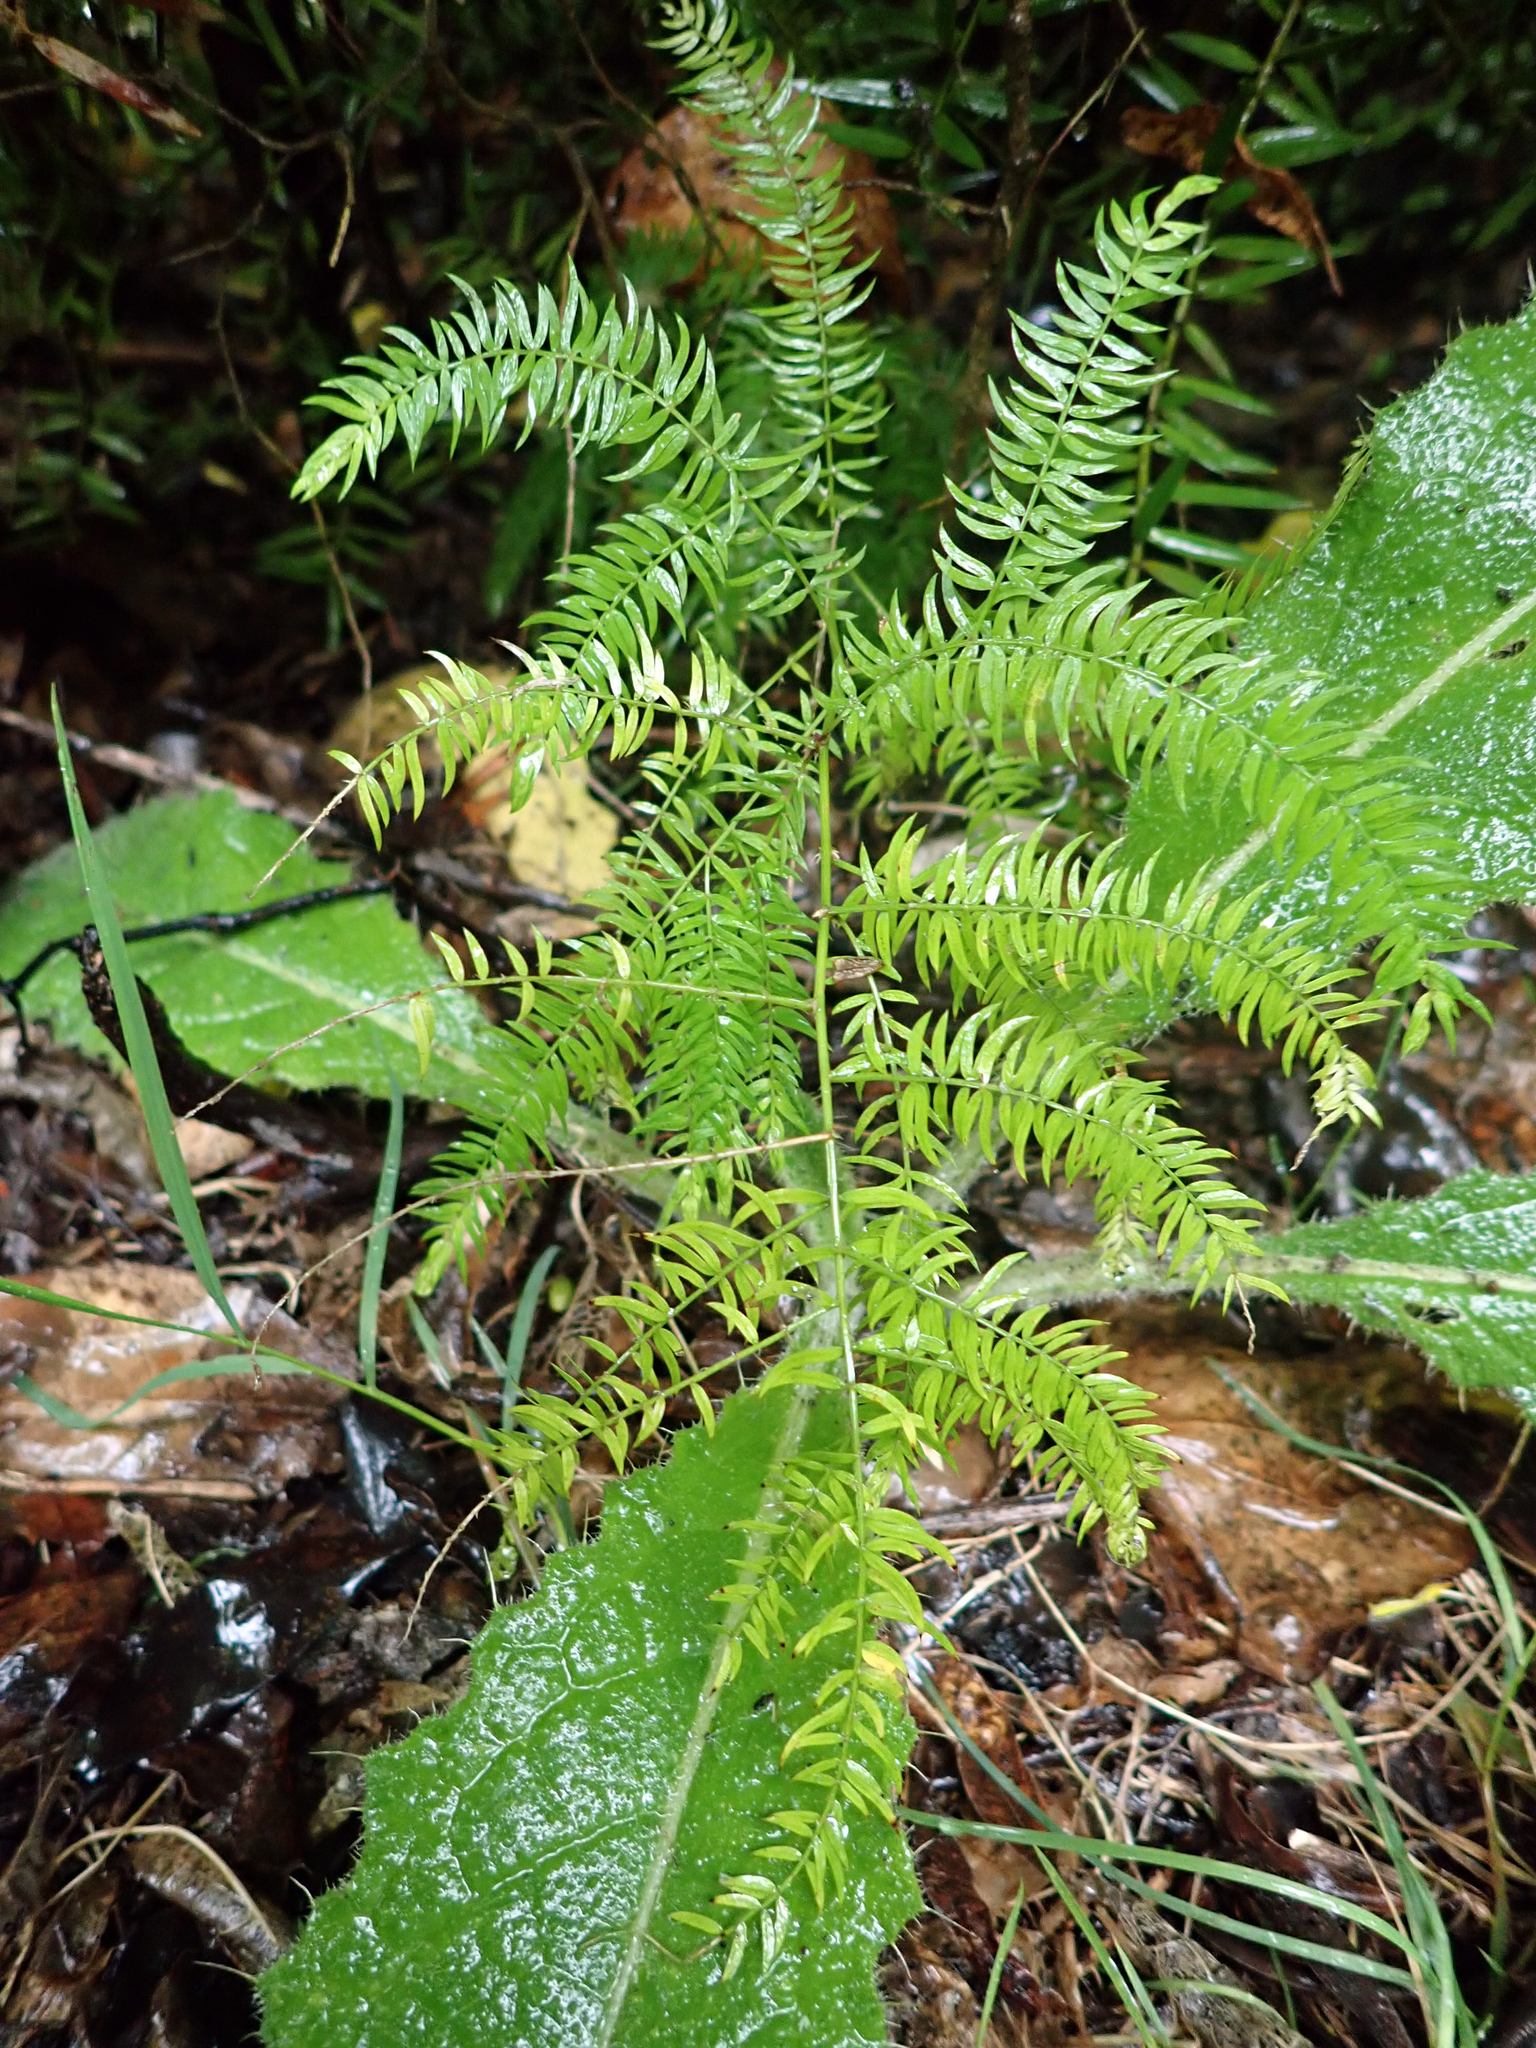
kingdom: Plantae
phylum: Tracheophyta
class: Liliopsida
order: Asparagales
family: Asparagaceae
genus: Asparagus
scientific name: Asparagus scandens
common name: Asparagus-fern
